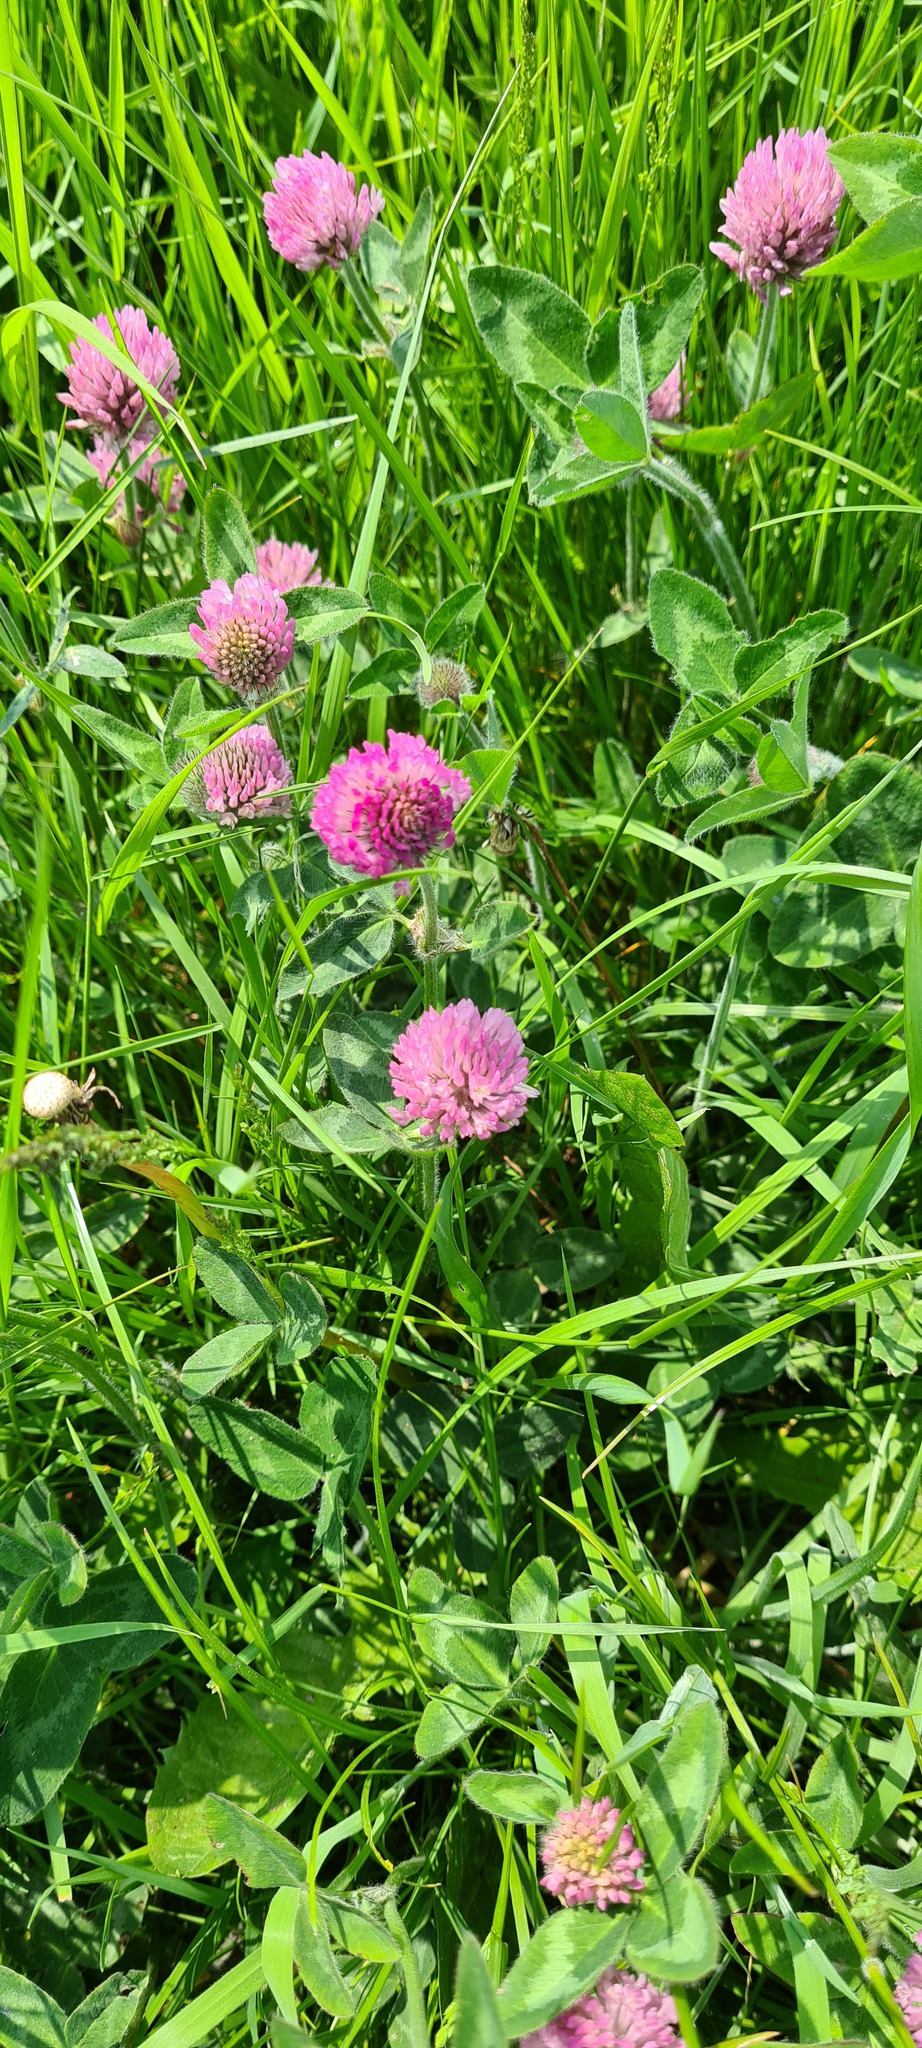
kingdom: Plantae
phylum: Tracheophyta
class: Magnoliopsida
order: Fabales
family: Fabaceae
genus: Trifolium
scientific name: Trifolium pratense
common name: Red clover
